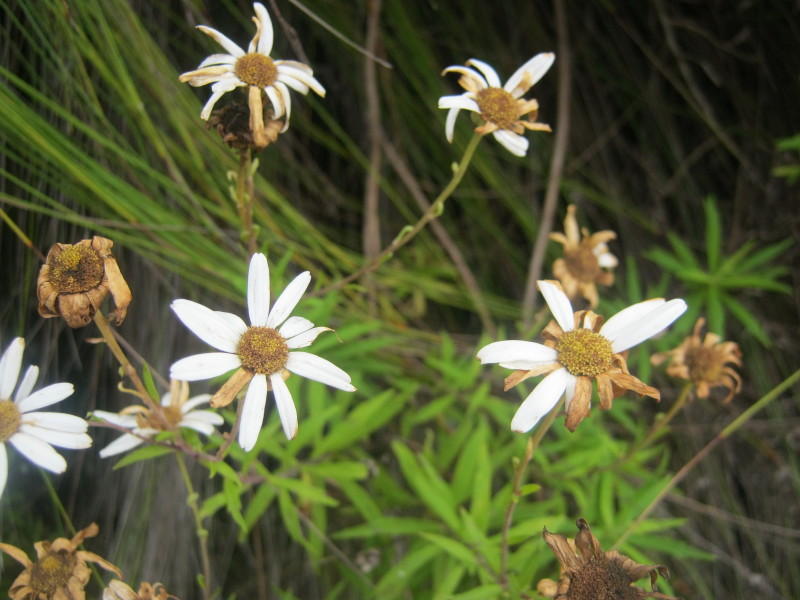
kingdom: Plantae
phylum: Tracheophyta
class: Magnoliopsida
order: Asterales
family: Asteraceae
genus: Osmitopsis
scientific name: Osmitopsis osmitoides
